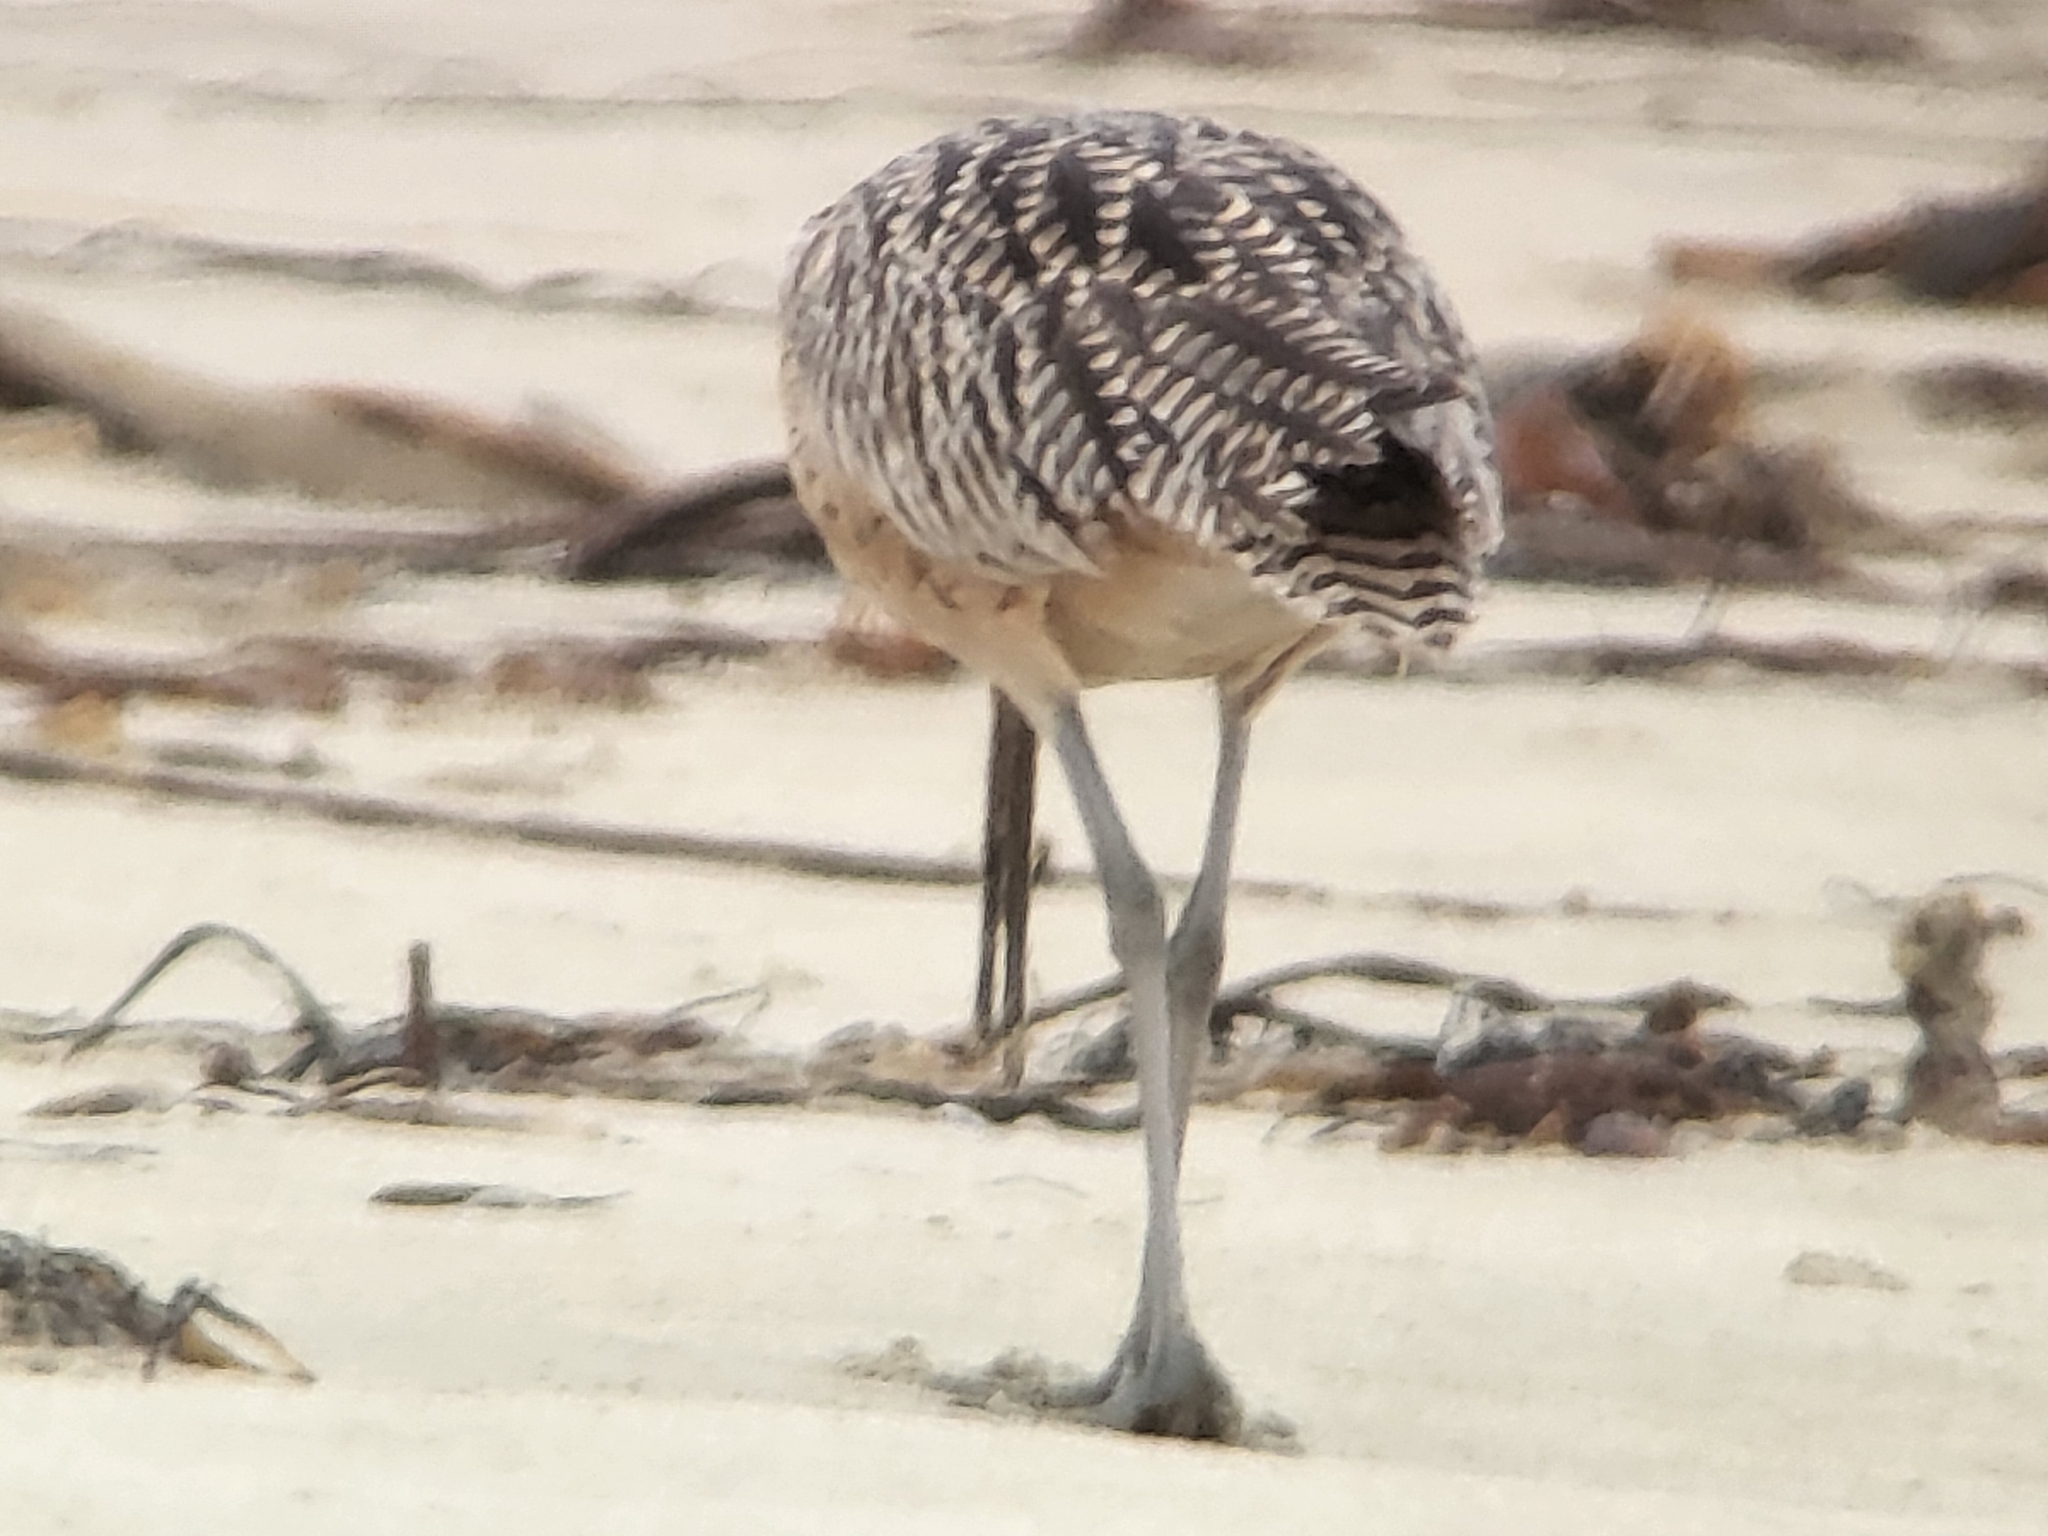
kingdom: Animalia
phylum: Chordata
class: Aves
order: Charadriiformes
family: Scolopacidae
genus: Numenius
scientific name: Numenius americanus
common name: Long-billed curlew
